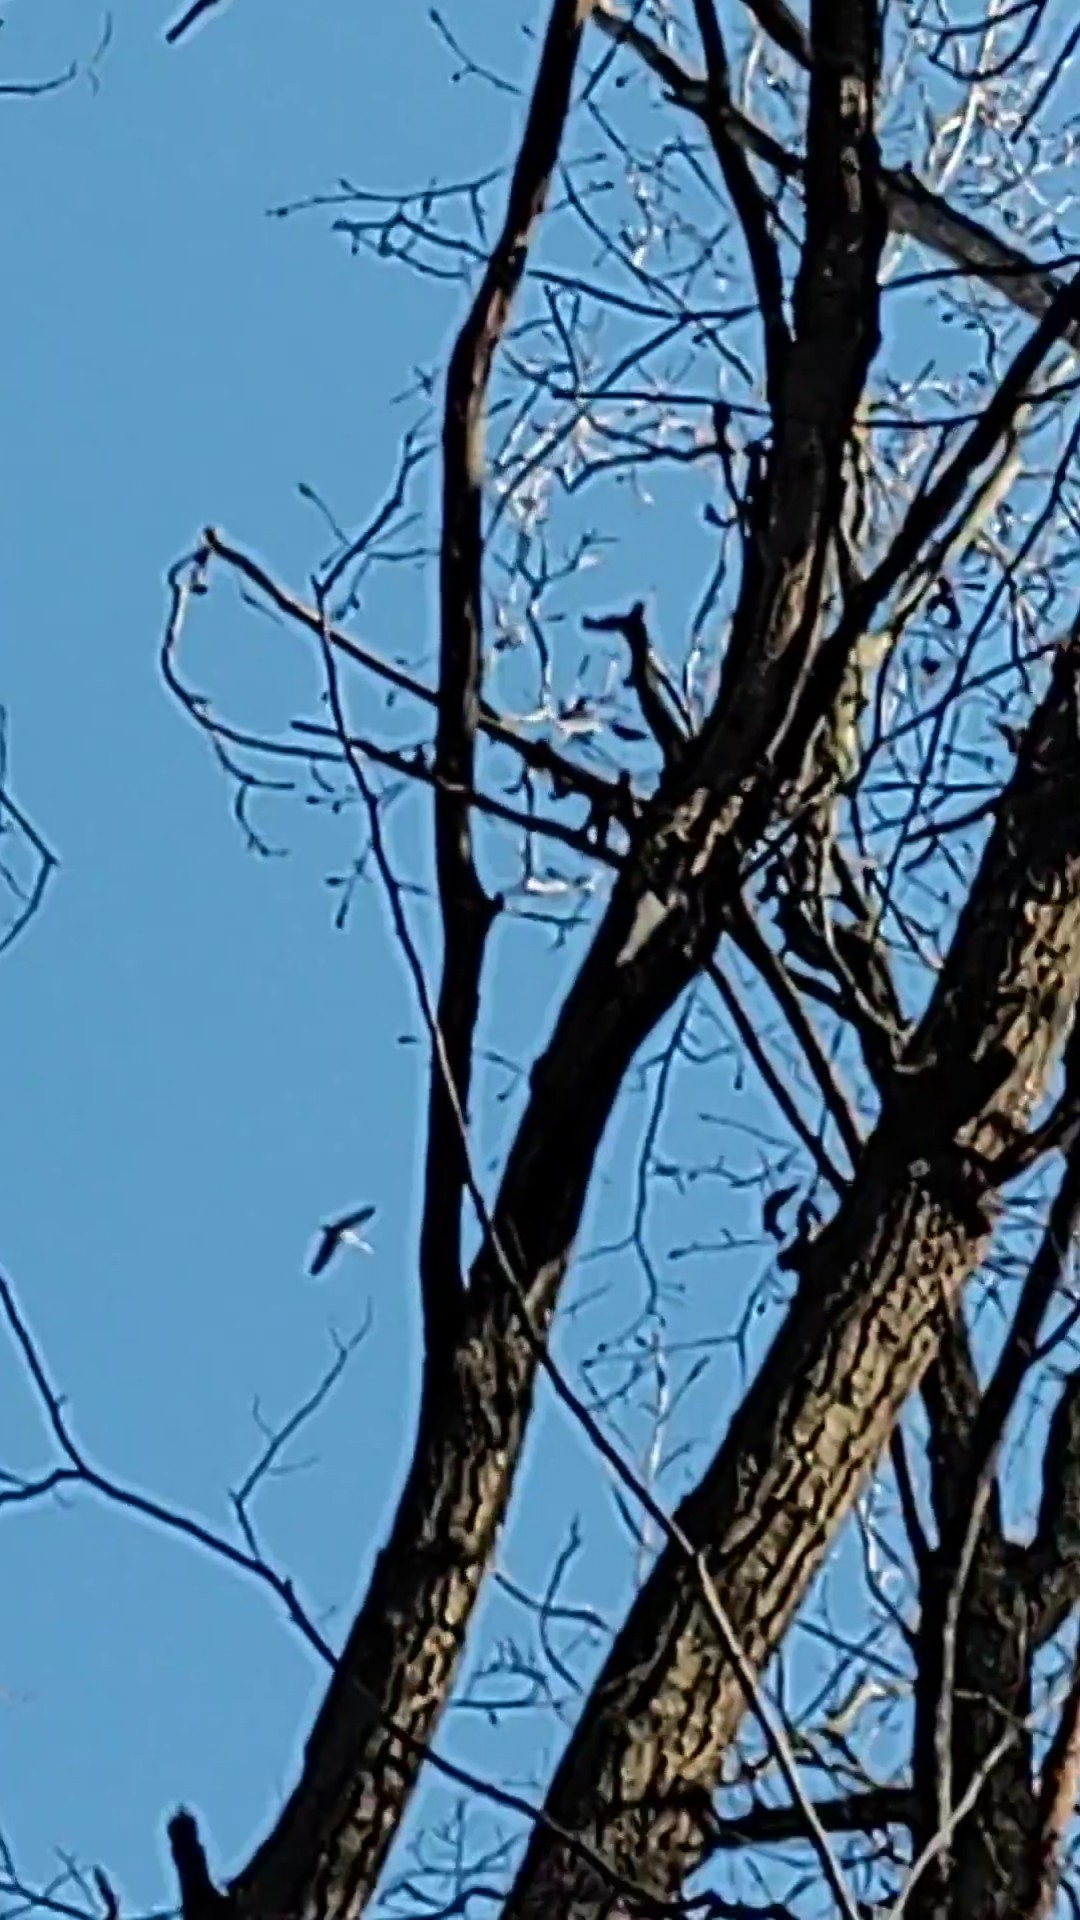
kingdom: Animalia
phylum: Chordata
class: Aves
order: Gruiformes
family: Gruidae
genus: Grus
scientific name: Grus grus
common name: Common crane
